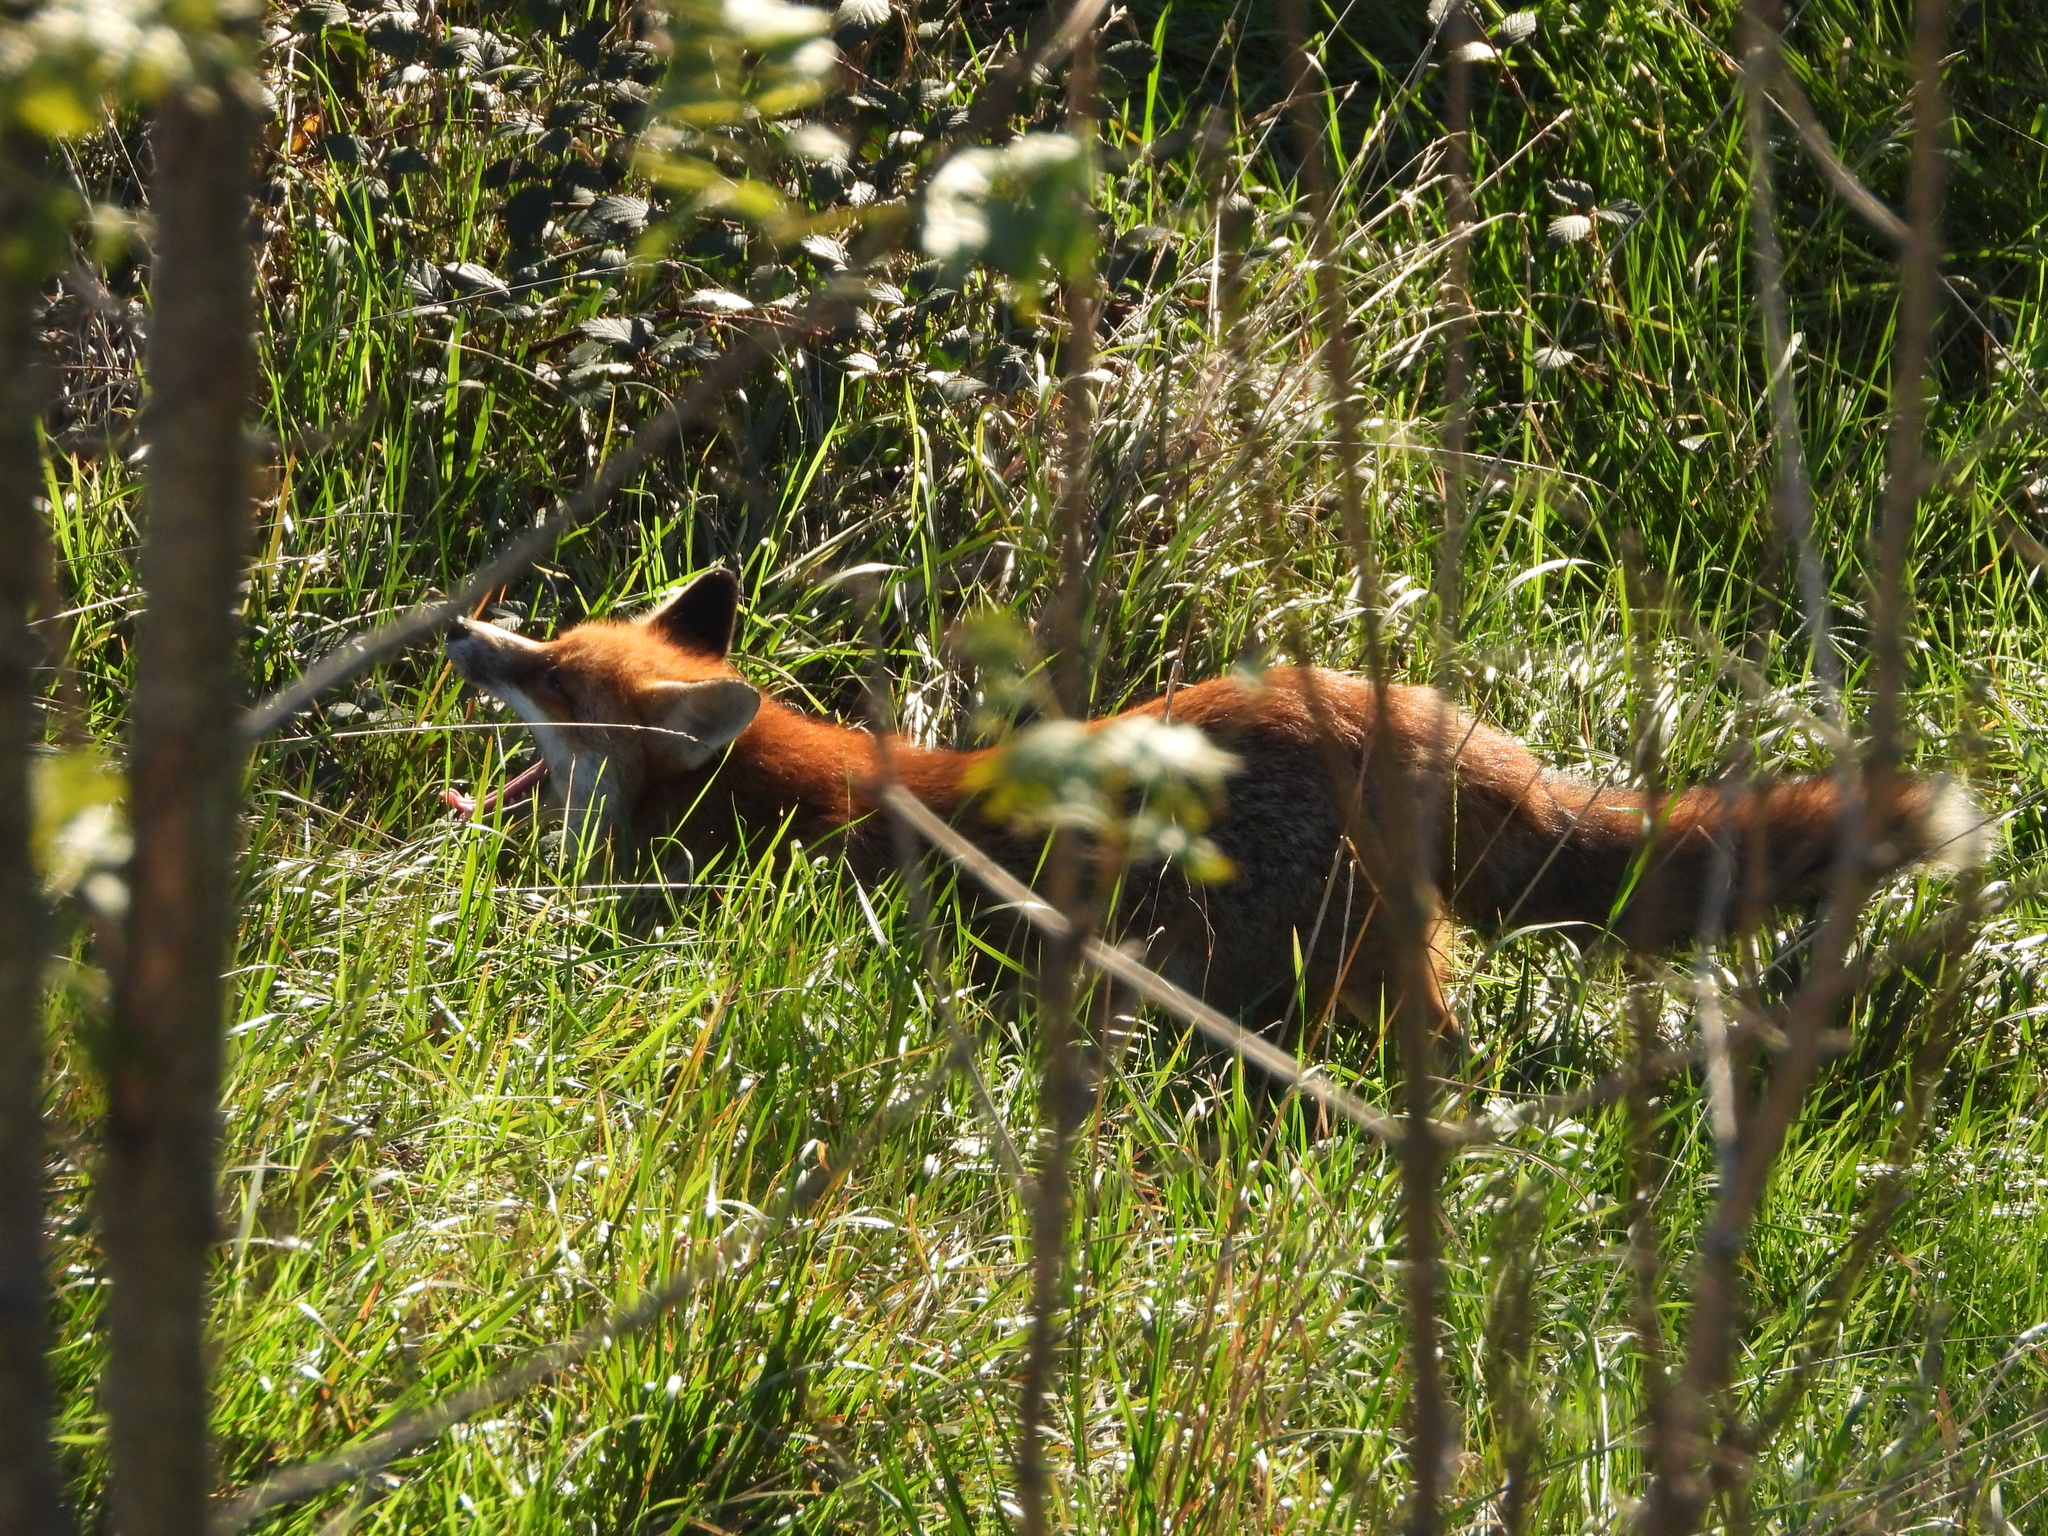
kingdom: Animalia
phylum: Chordata
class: Mammalia
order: Carnivora
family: Canidae
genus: Vulpes
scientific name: Vulpes vulpes
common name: Red fox
